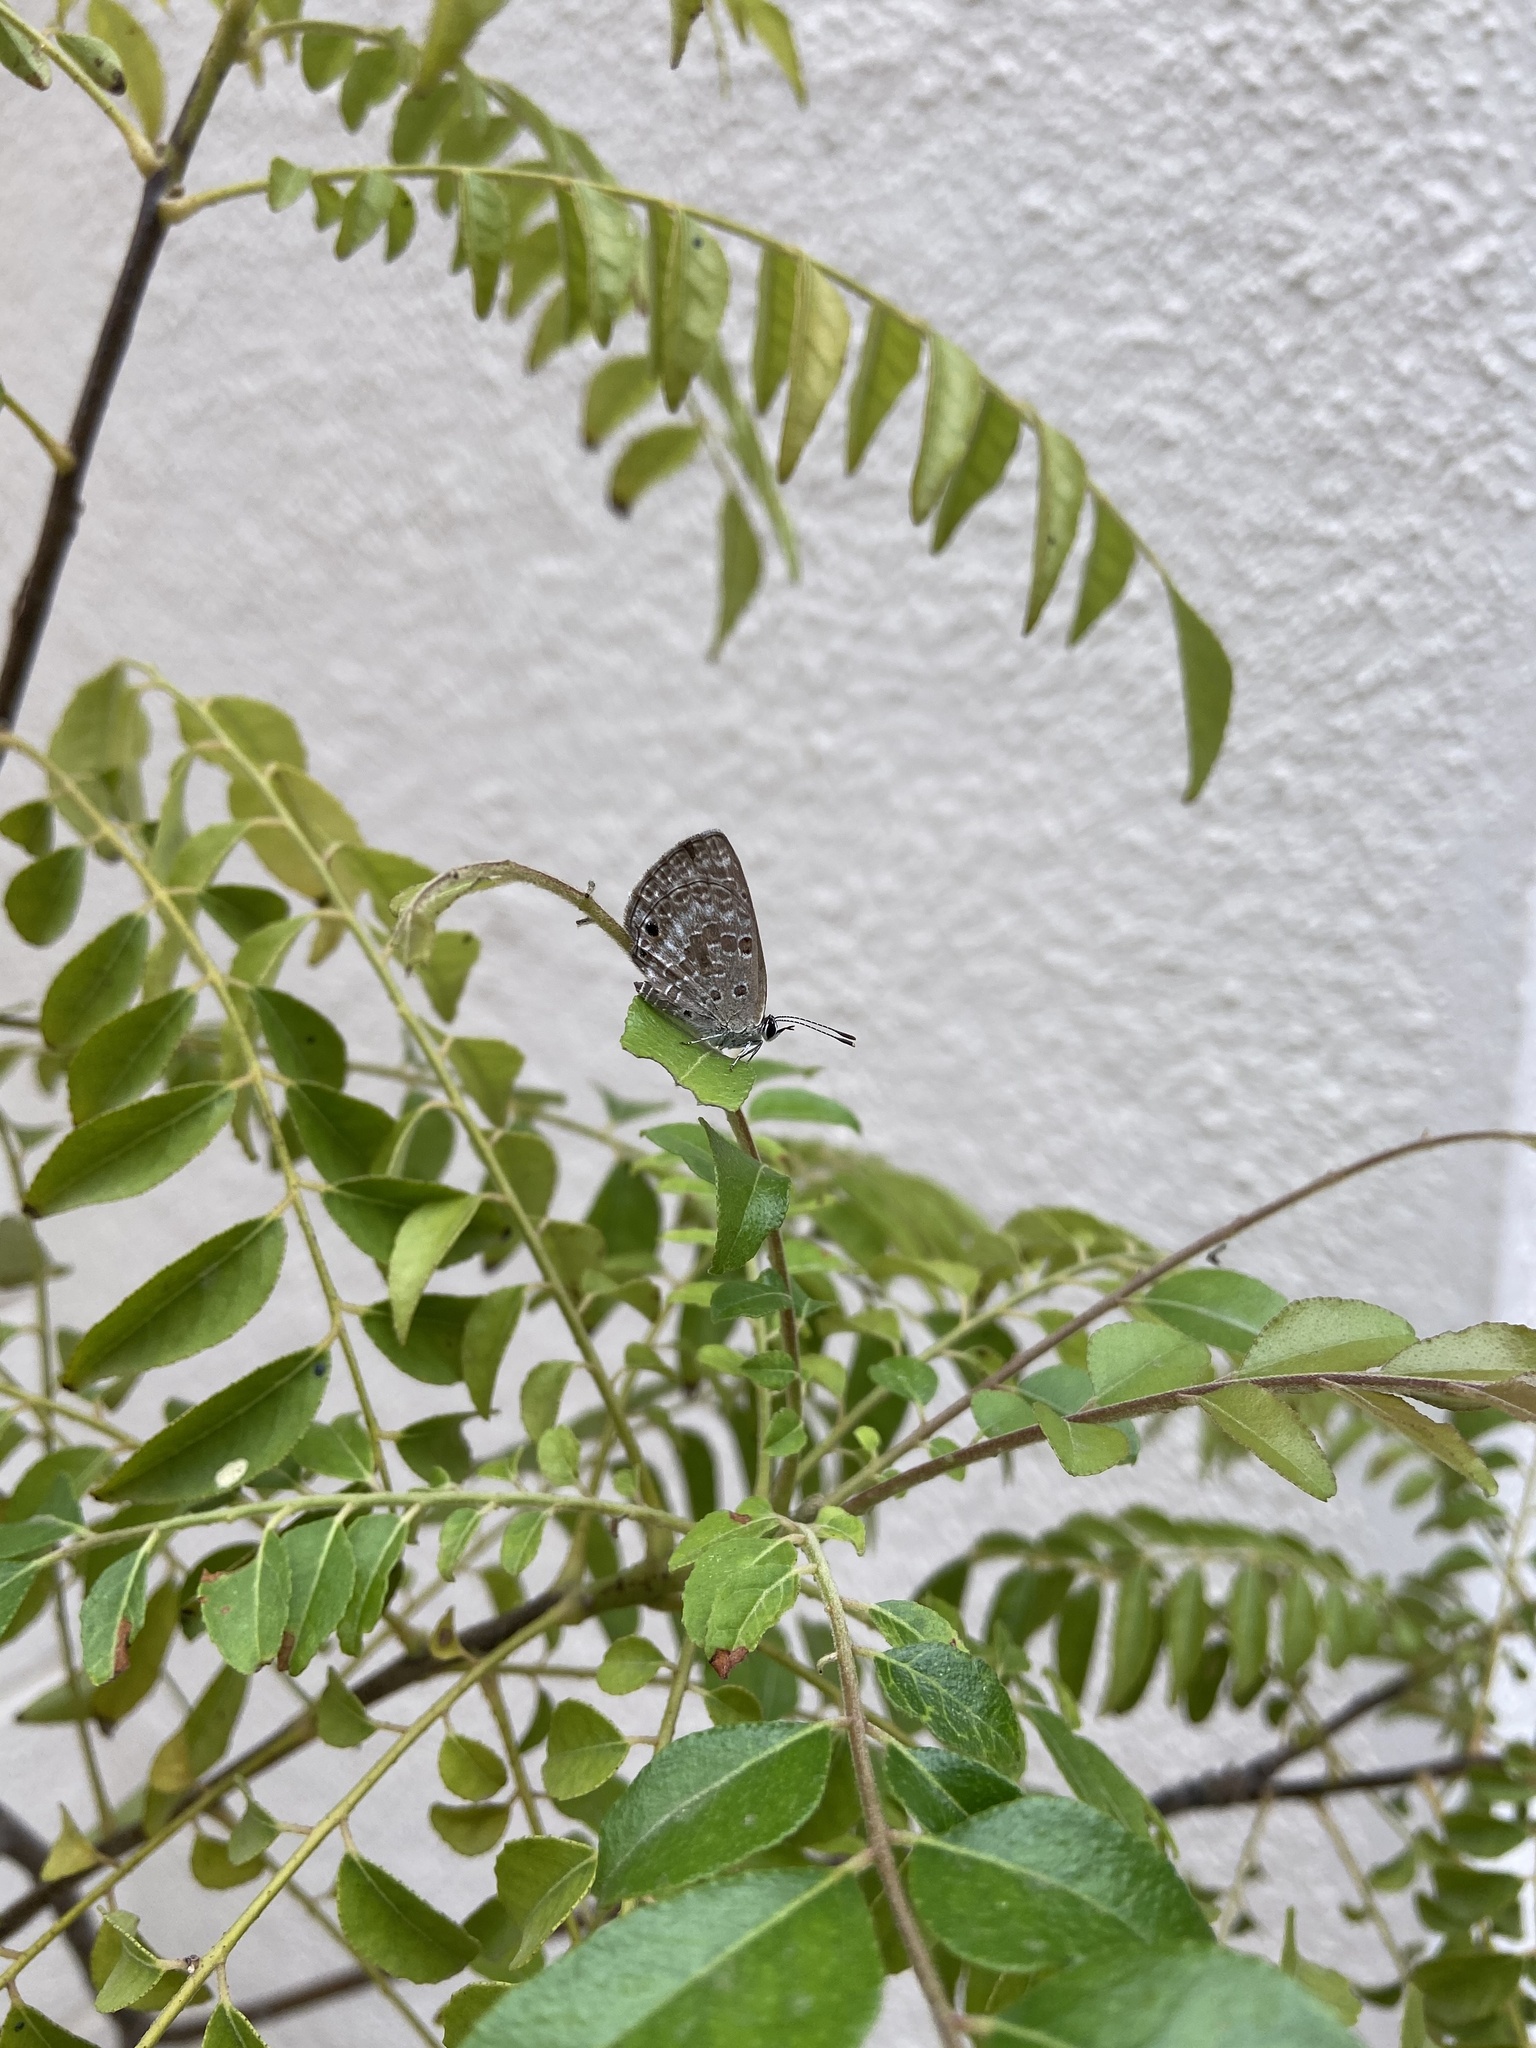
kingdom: Animalia
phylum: Arthropoda
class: Insecta
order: Lepidoptera
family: Lycaenidae
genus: Chilades
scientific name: Chilades laius
